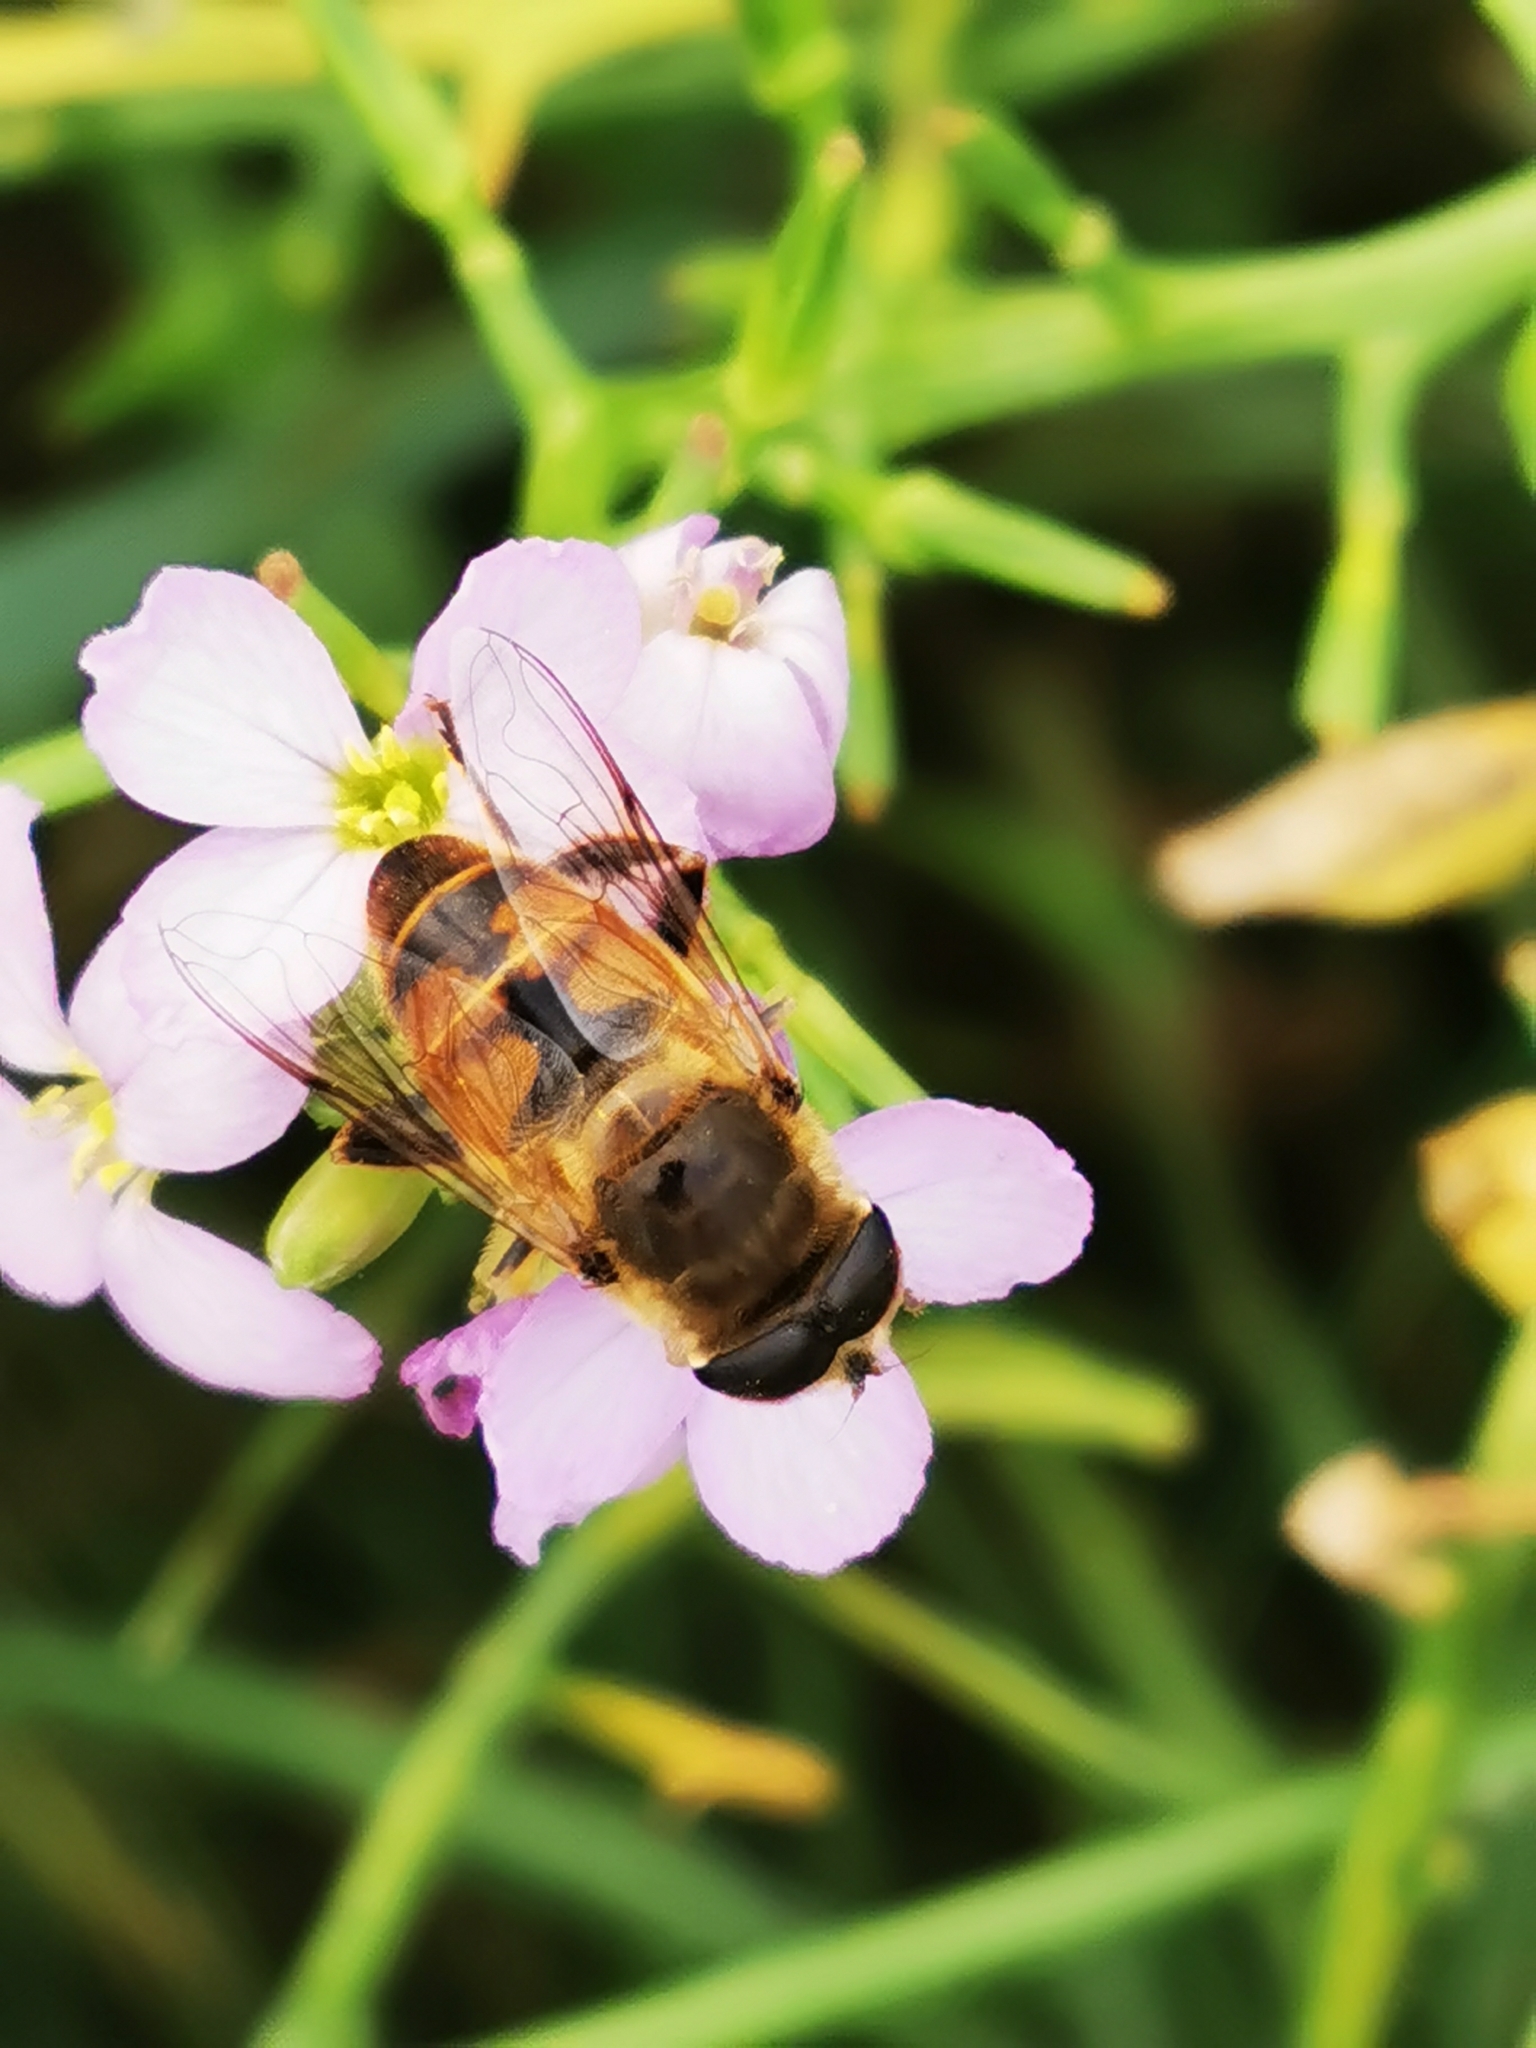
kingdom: Animalia
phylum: Arthropoda
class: Insecta
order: Diptera
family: Syrphidae
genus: Eristalis
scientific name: Eristalis tenax
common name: Drone fly
